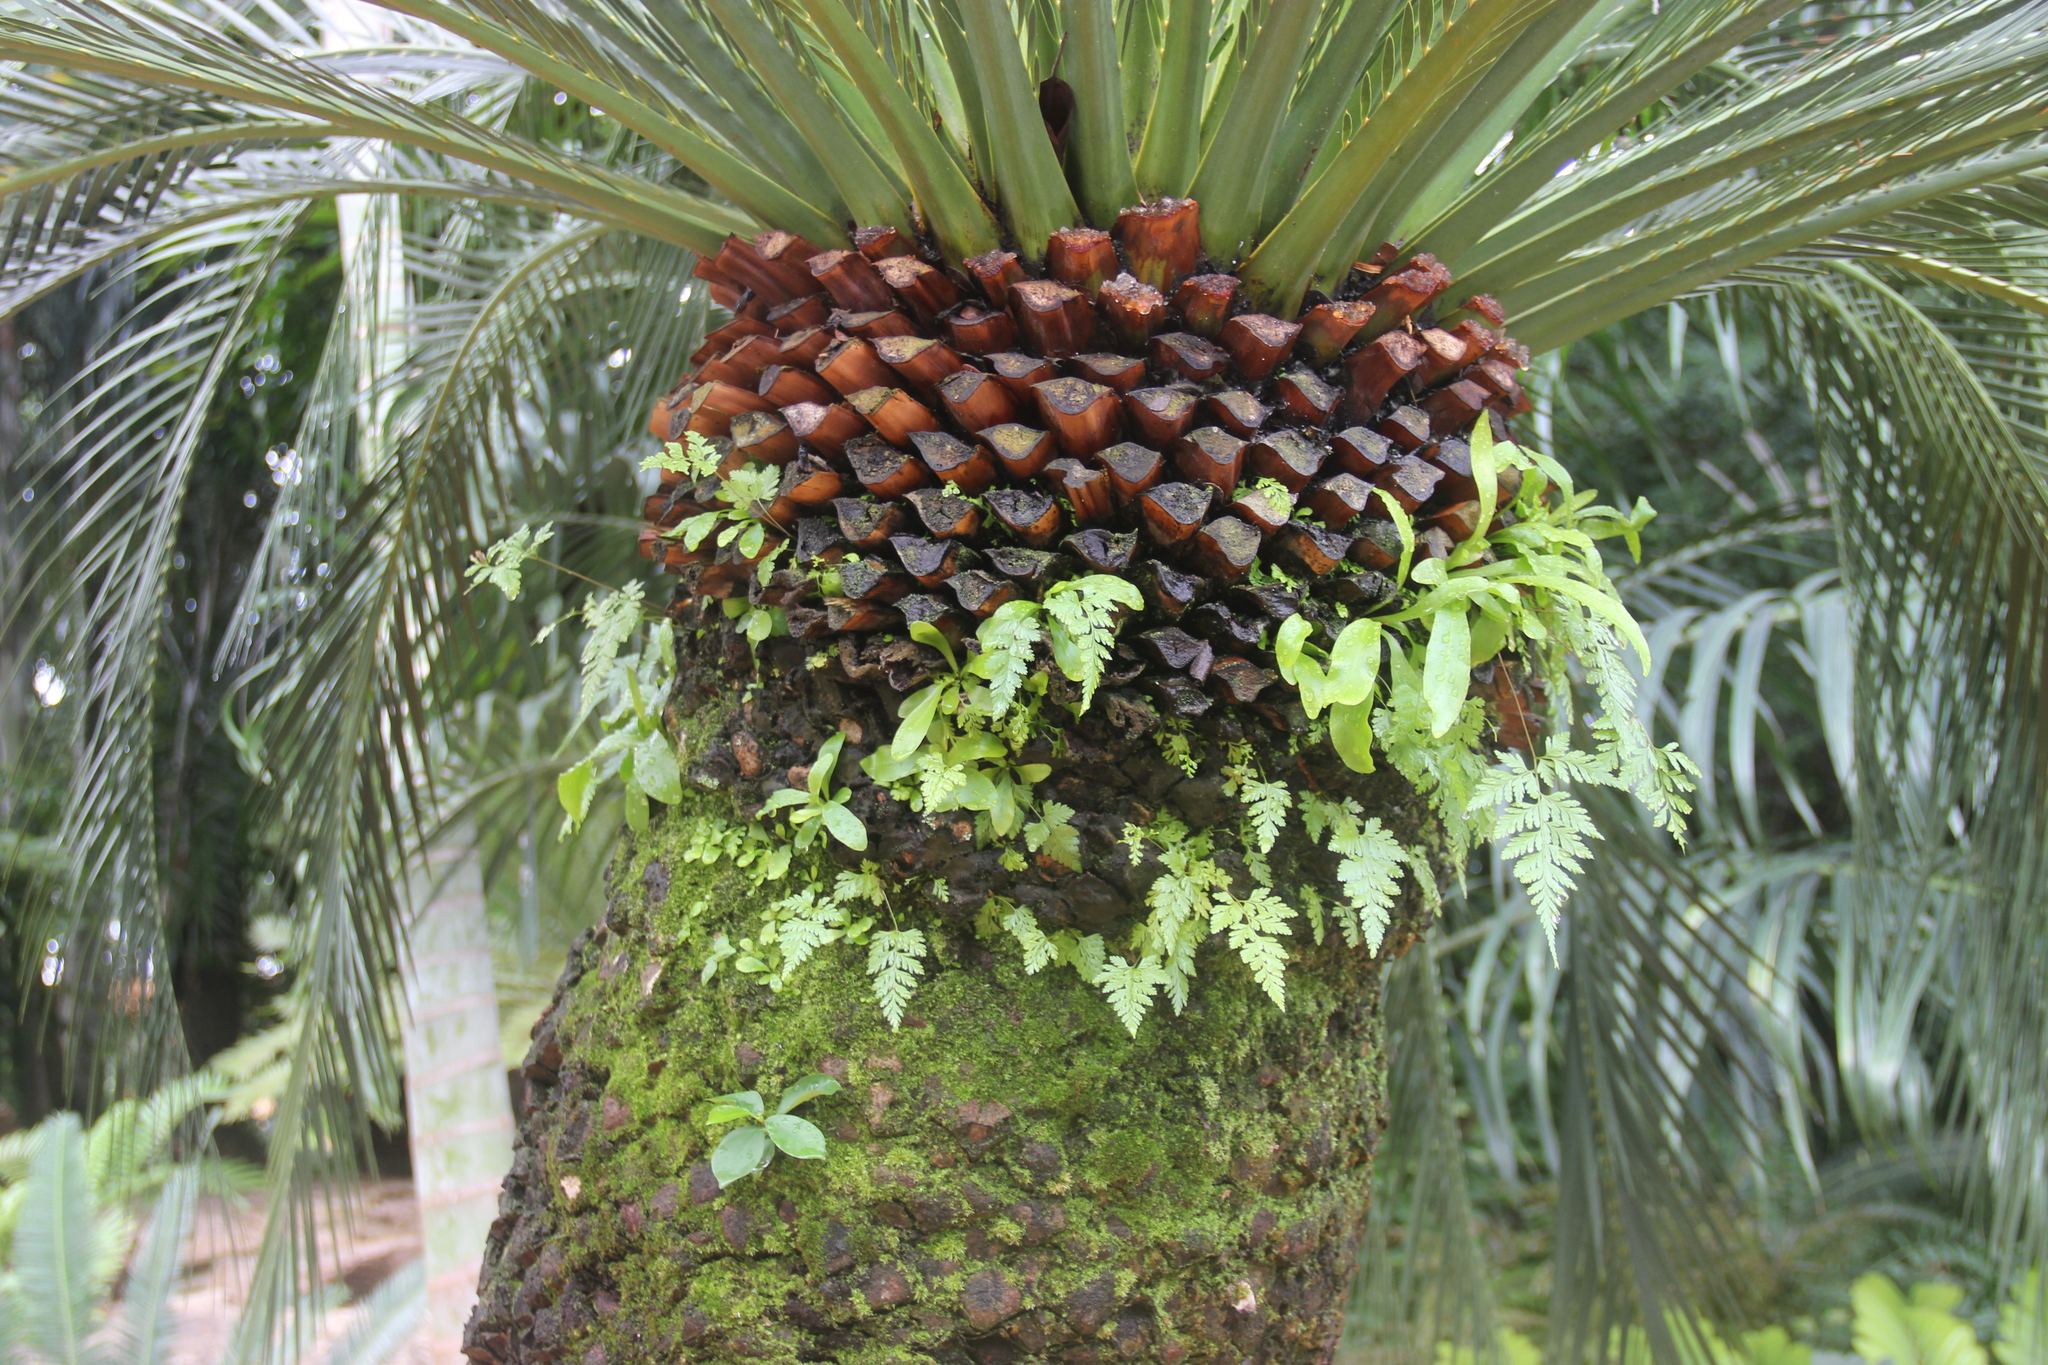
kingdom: Plantae
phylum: Tracheophyta
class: Polypodiopsida
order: Polypodiales
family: Aspleniaceae
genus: Asplenium
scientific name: Asplenium nidus
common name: Bird's-nest fern
